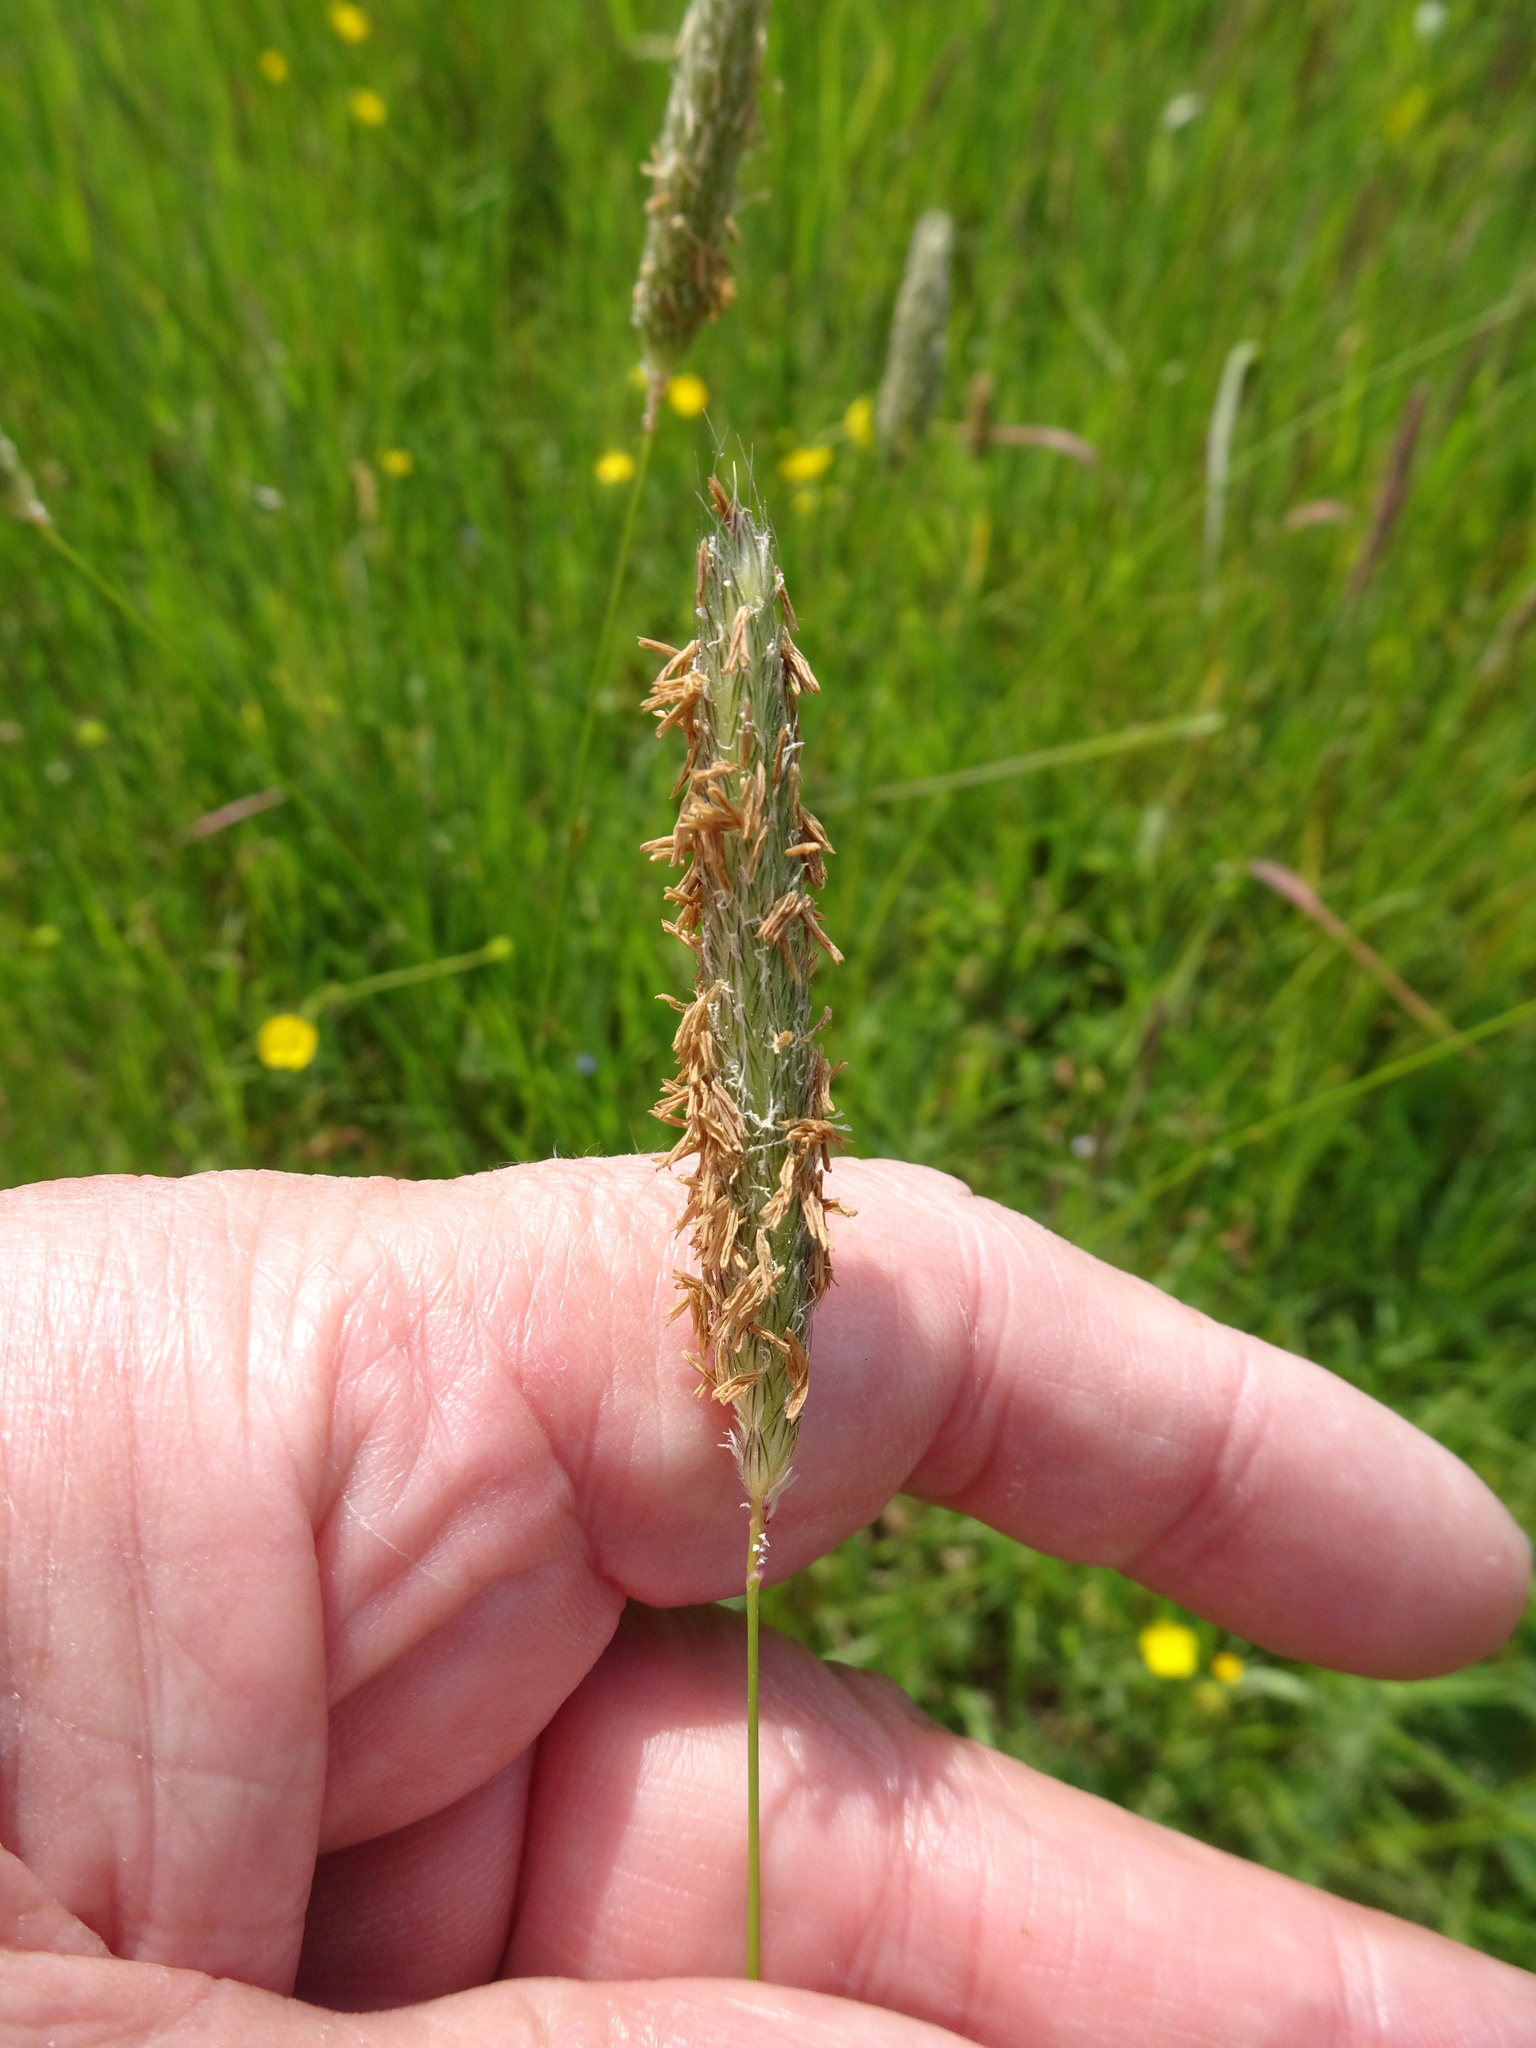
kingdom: Plantae
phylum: Tracheophyta
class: Liliopsida
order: Poales
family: Poaceae
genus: Alopecurus
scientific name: Alopecurus pratensis
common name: Meadow foxtail
